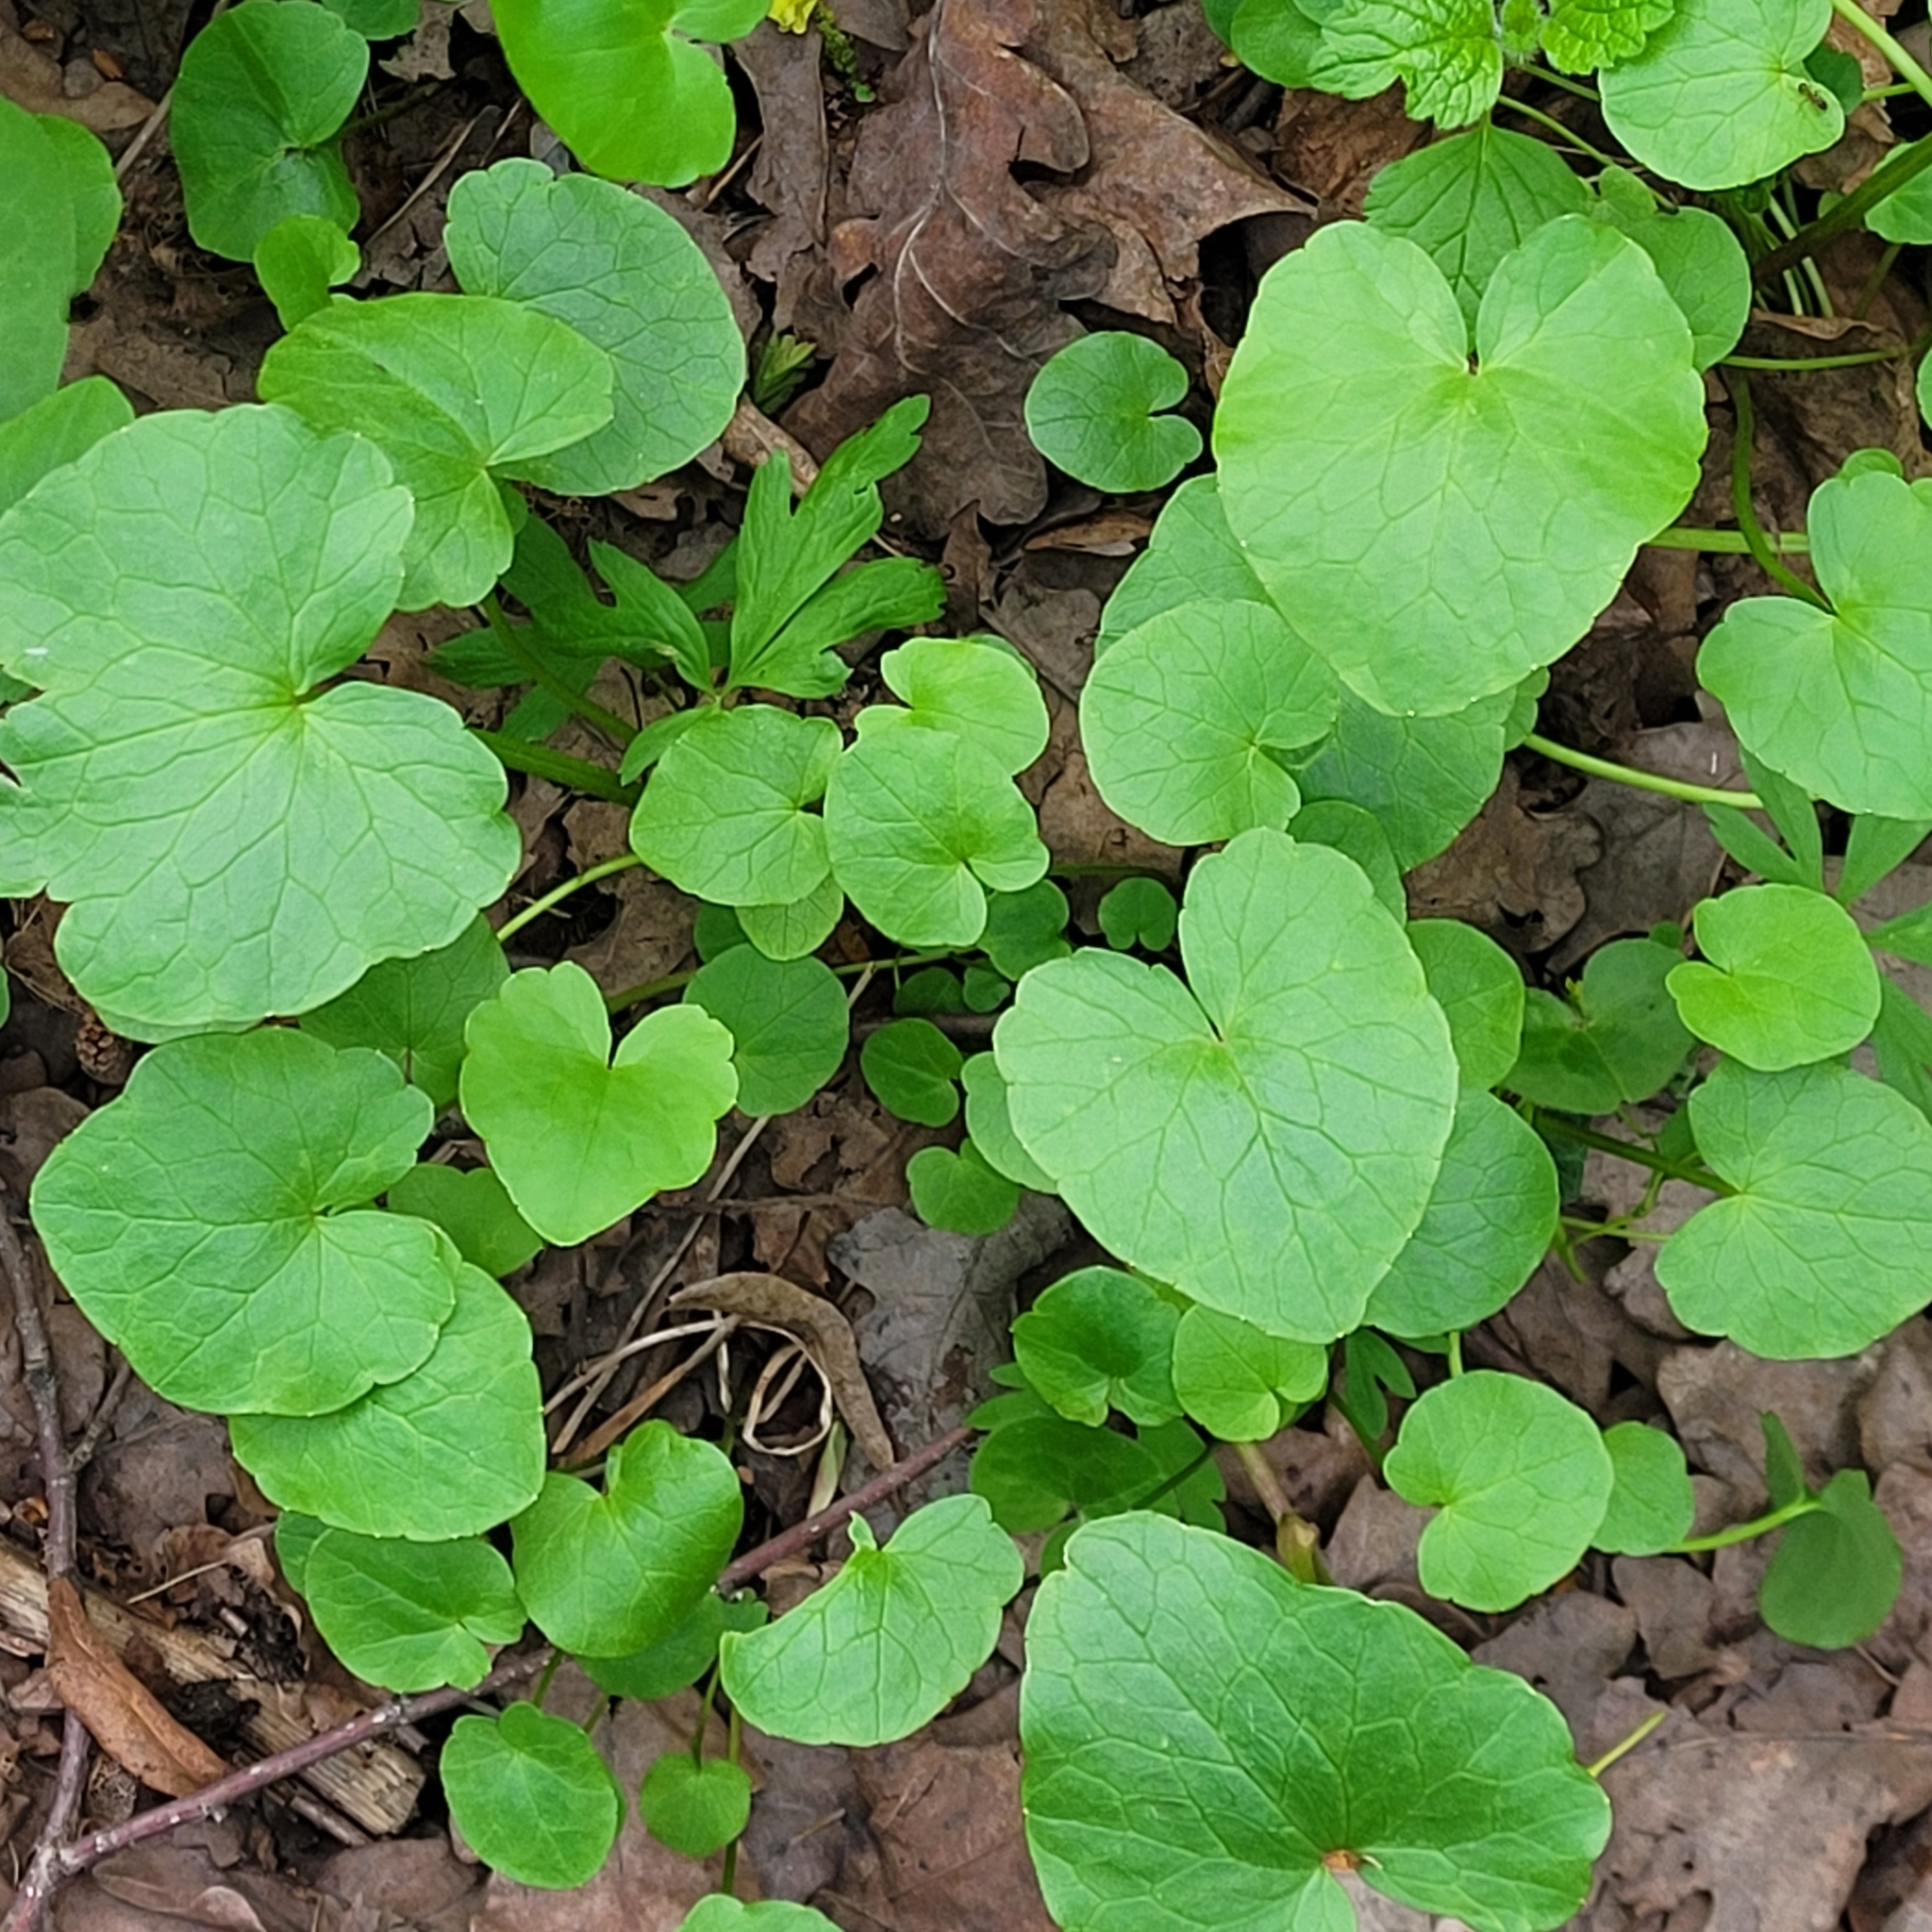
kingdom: Plantae
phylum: Tracheophyta
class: Magnoliopsida
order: Ranunculales
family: Ranunculaceae
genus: Ficaria
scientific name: Ficaria verna
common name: Lesser celandine
